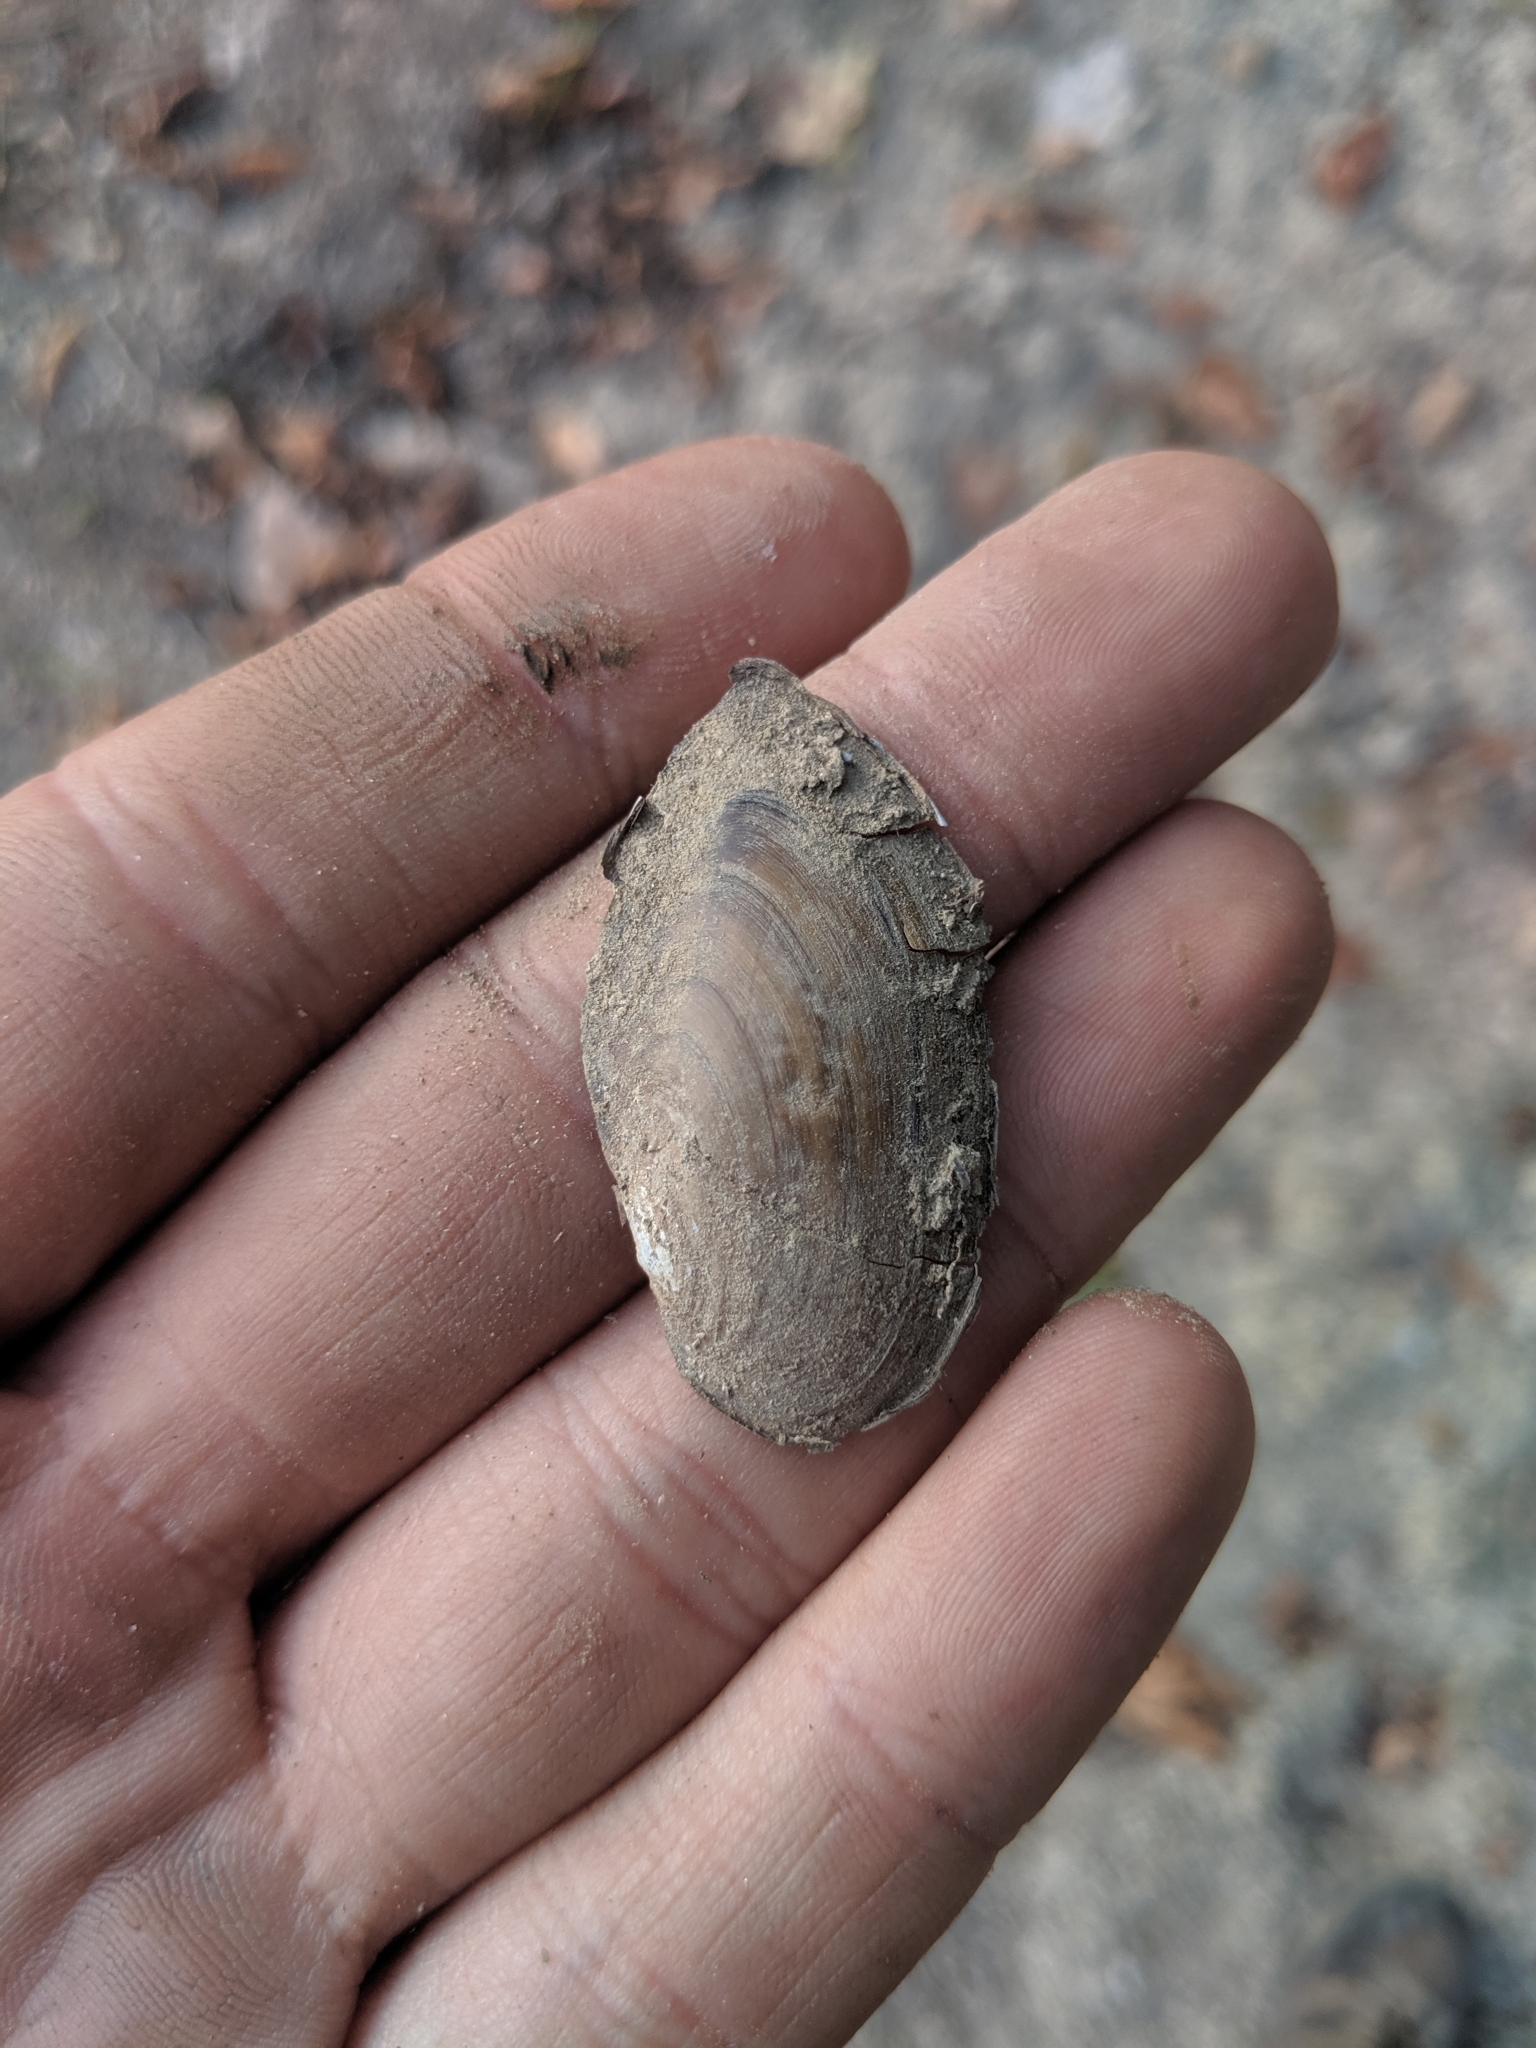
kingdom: Animalia
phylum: Mollusca
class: Bivalvia
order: Unionida
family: Unionidae
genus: Utterbackia
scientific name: Utterbackia imbecillis
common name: Paper pondshell
